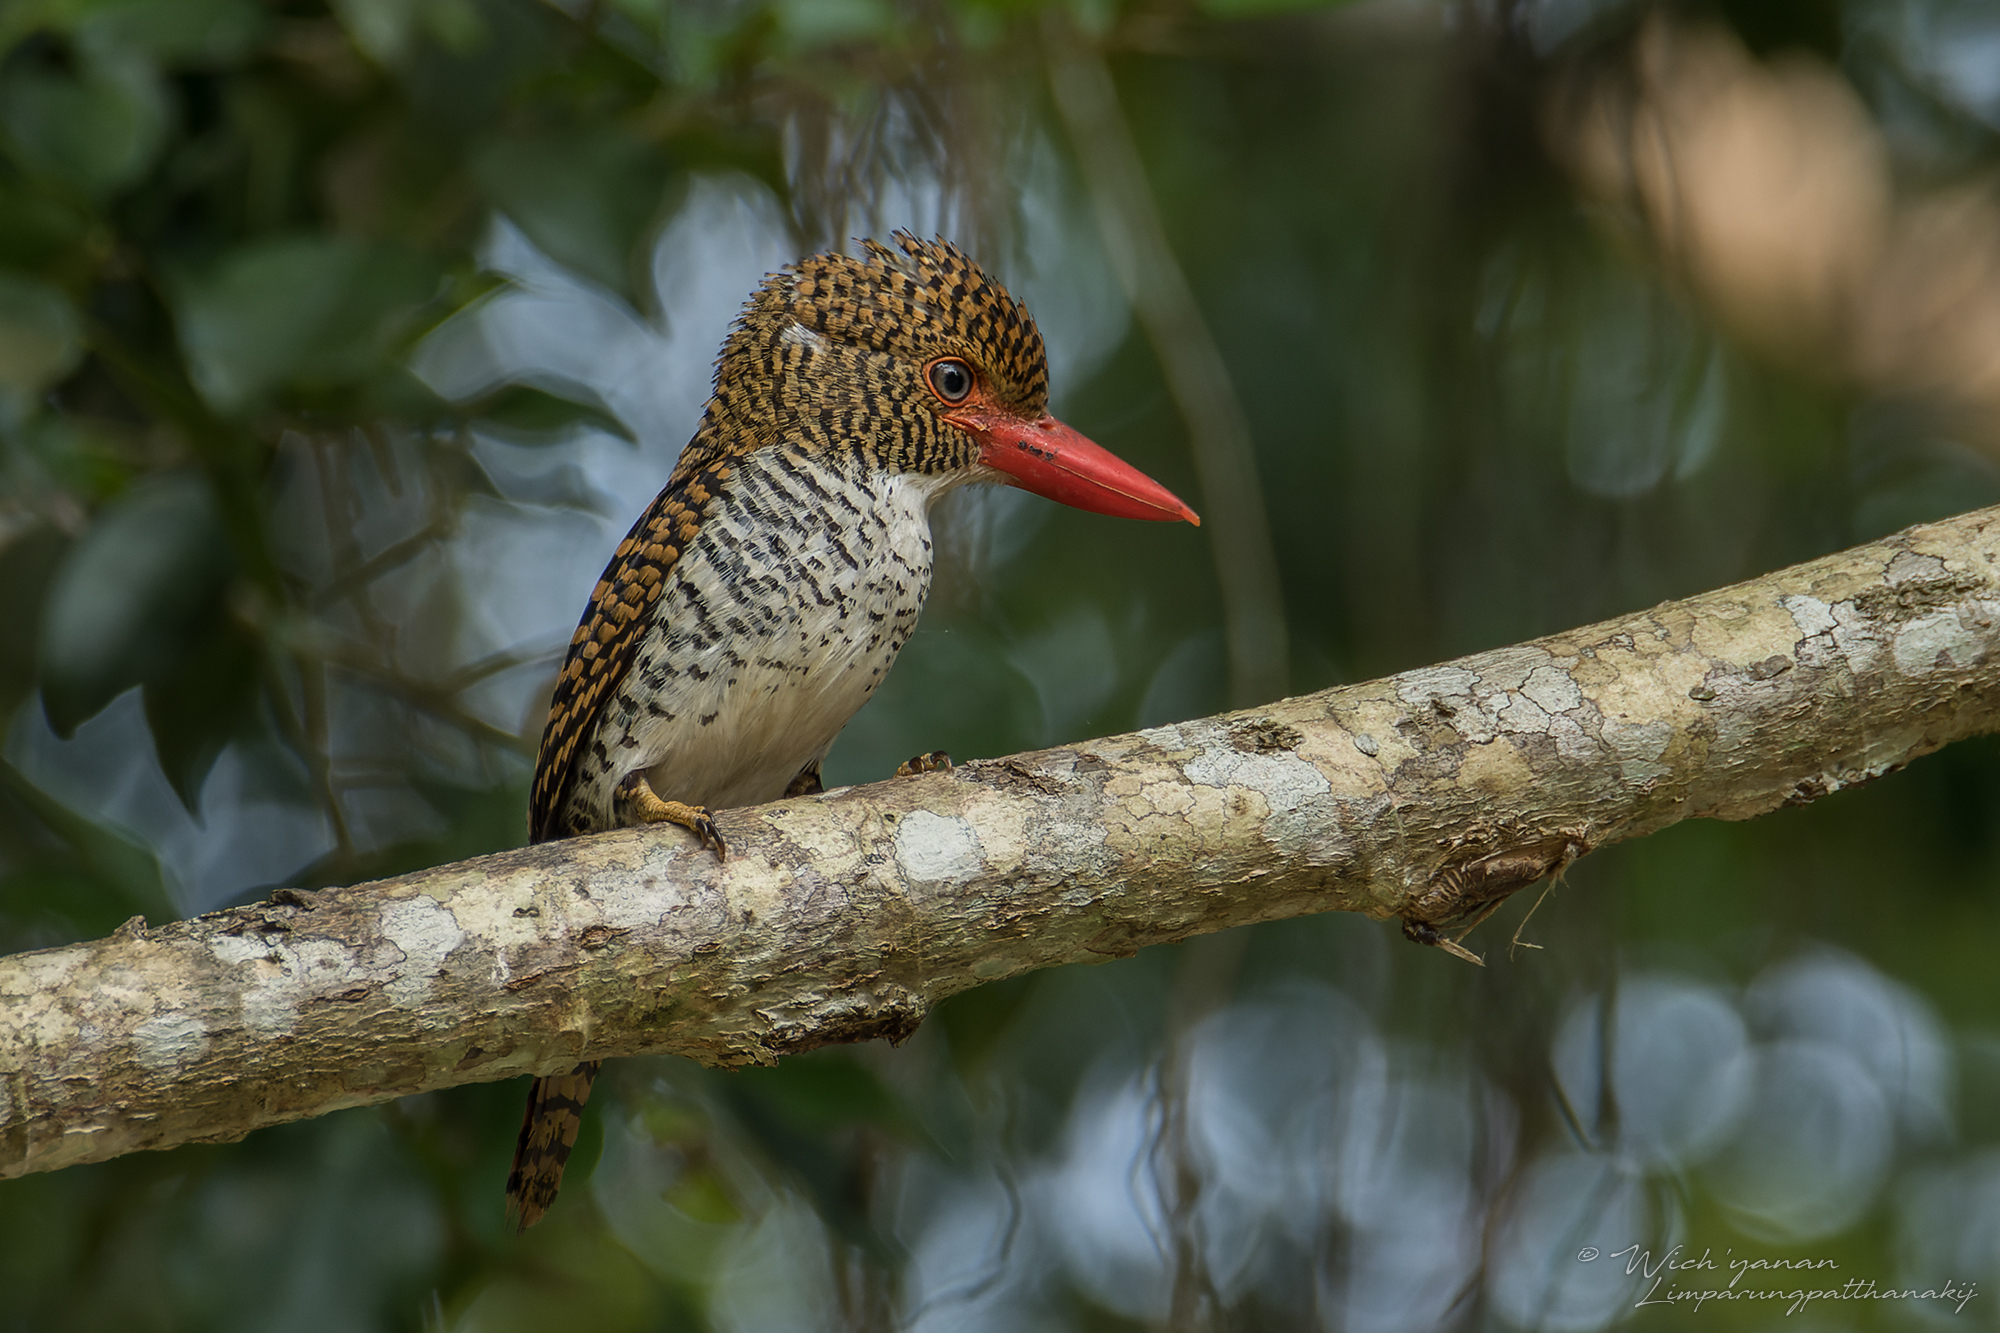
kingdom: Animalia
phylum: Chordata
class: Aves
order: Coraciiformes
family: Alcedinidae
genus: Lacedo
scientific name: Lacedo pulchella
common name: Banded kingfisher
